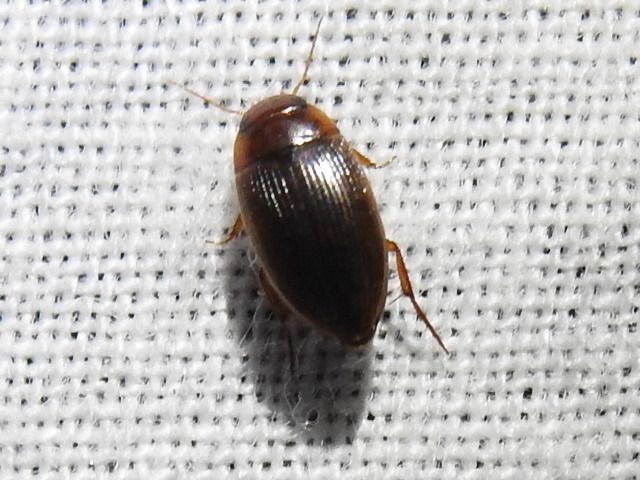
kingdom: Animalia
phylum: Arthropoda
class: Insecta
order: Coleoptera
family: Dytiscidae
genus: Copelatus
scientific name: Copelatus glyphicus
